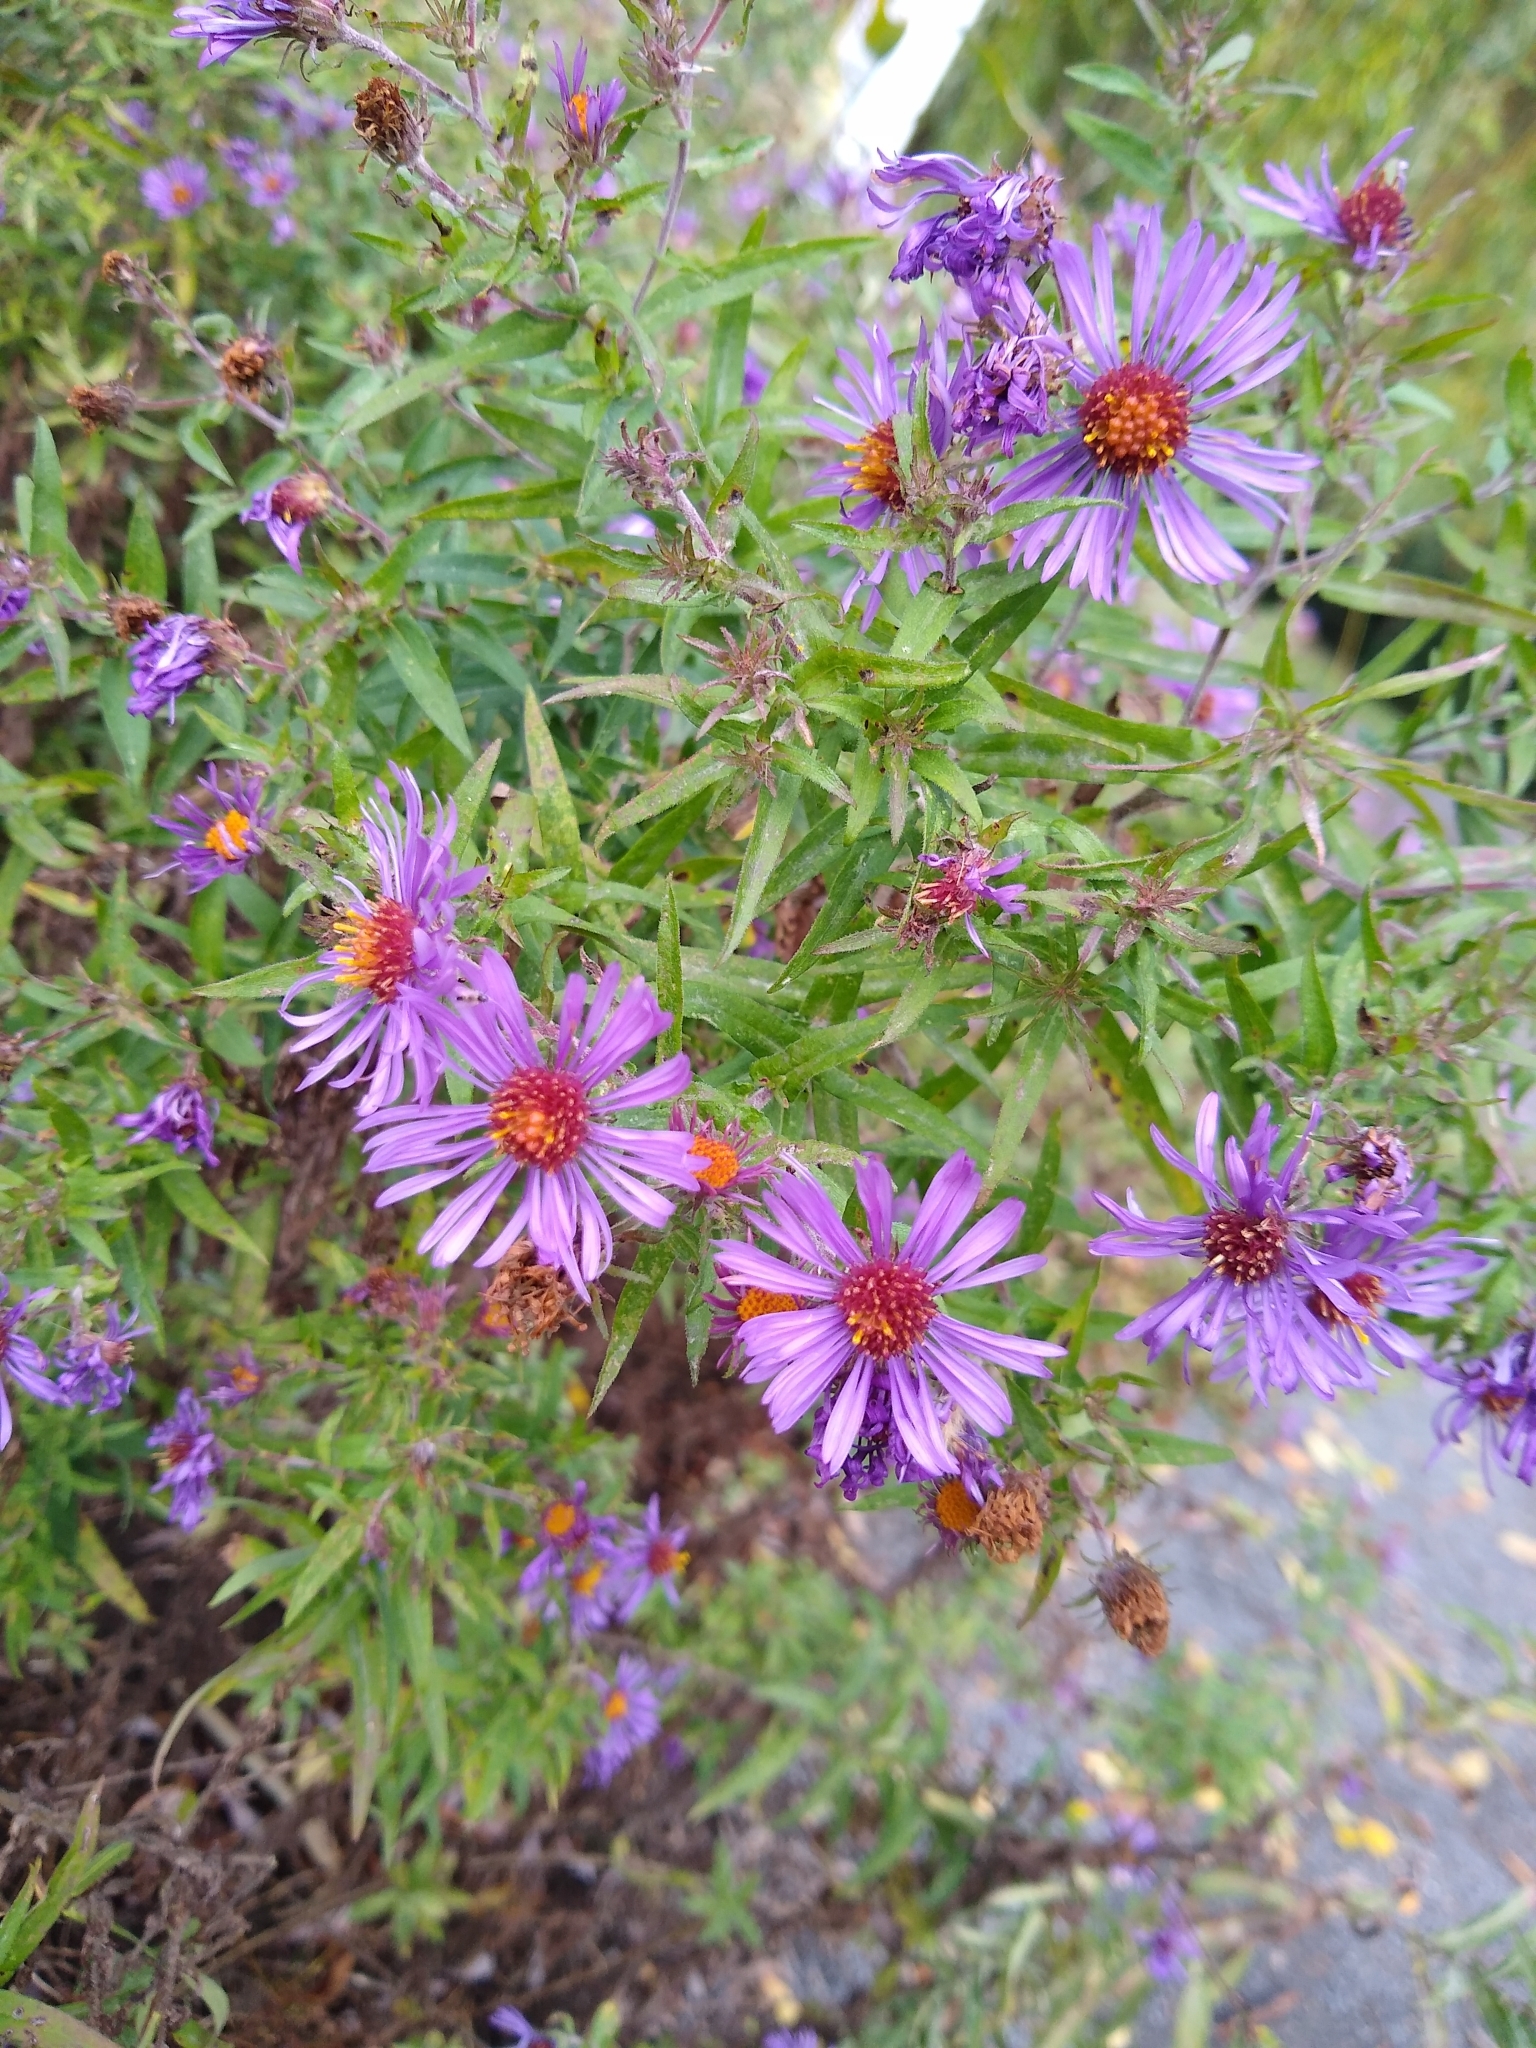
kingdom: Plantae
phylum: Tracheophyta
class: Magnoliopsida
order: Asterales
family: Asteraceae
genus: Symphyotrichum
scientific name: Symphyotrichum novae-angliae
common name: Michaelmas daisy
